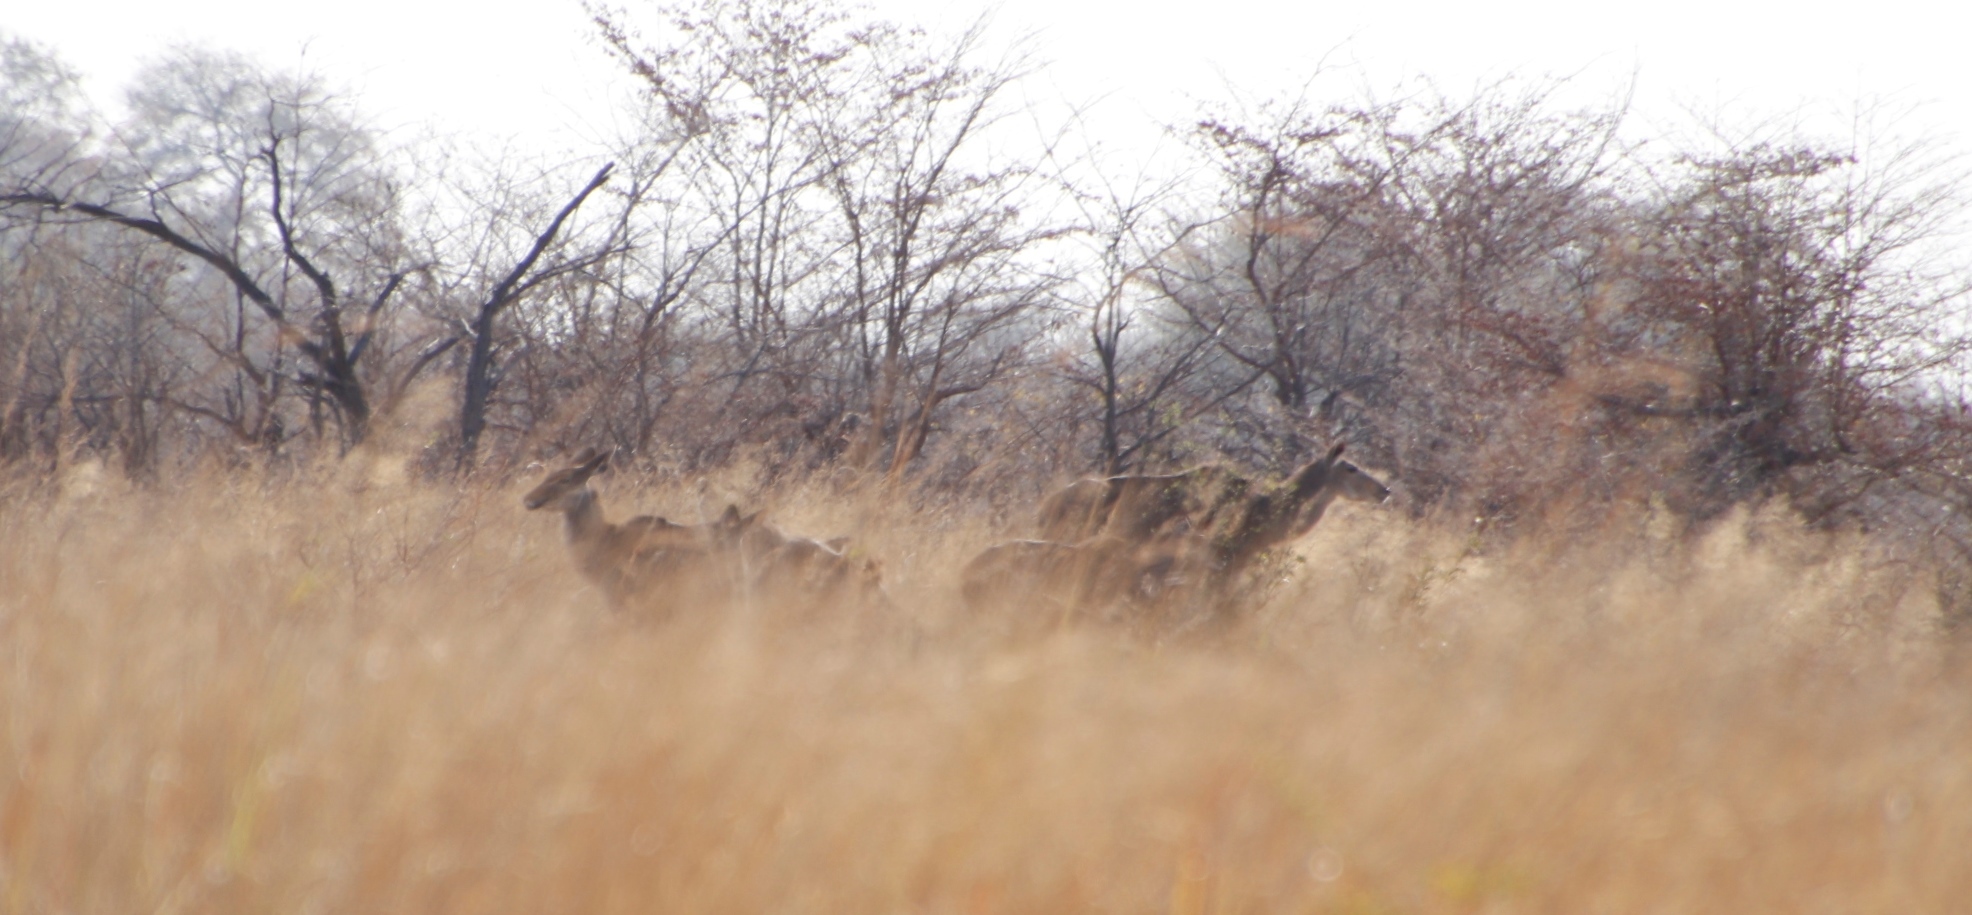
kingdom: Animalia
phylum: Chordata
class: Mammalia
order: Artiodactyla
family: Bovidae
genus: Tragelaphus
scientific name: Tragelaphus strepsiceros
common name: Greater kudu
